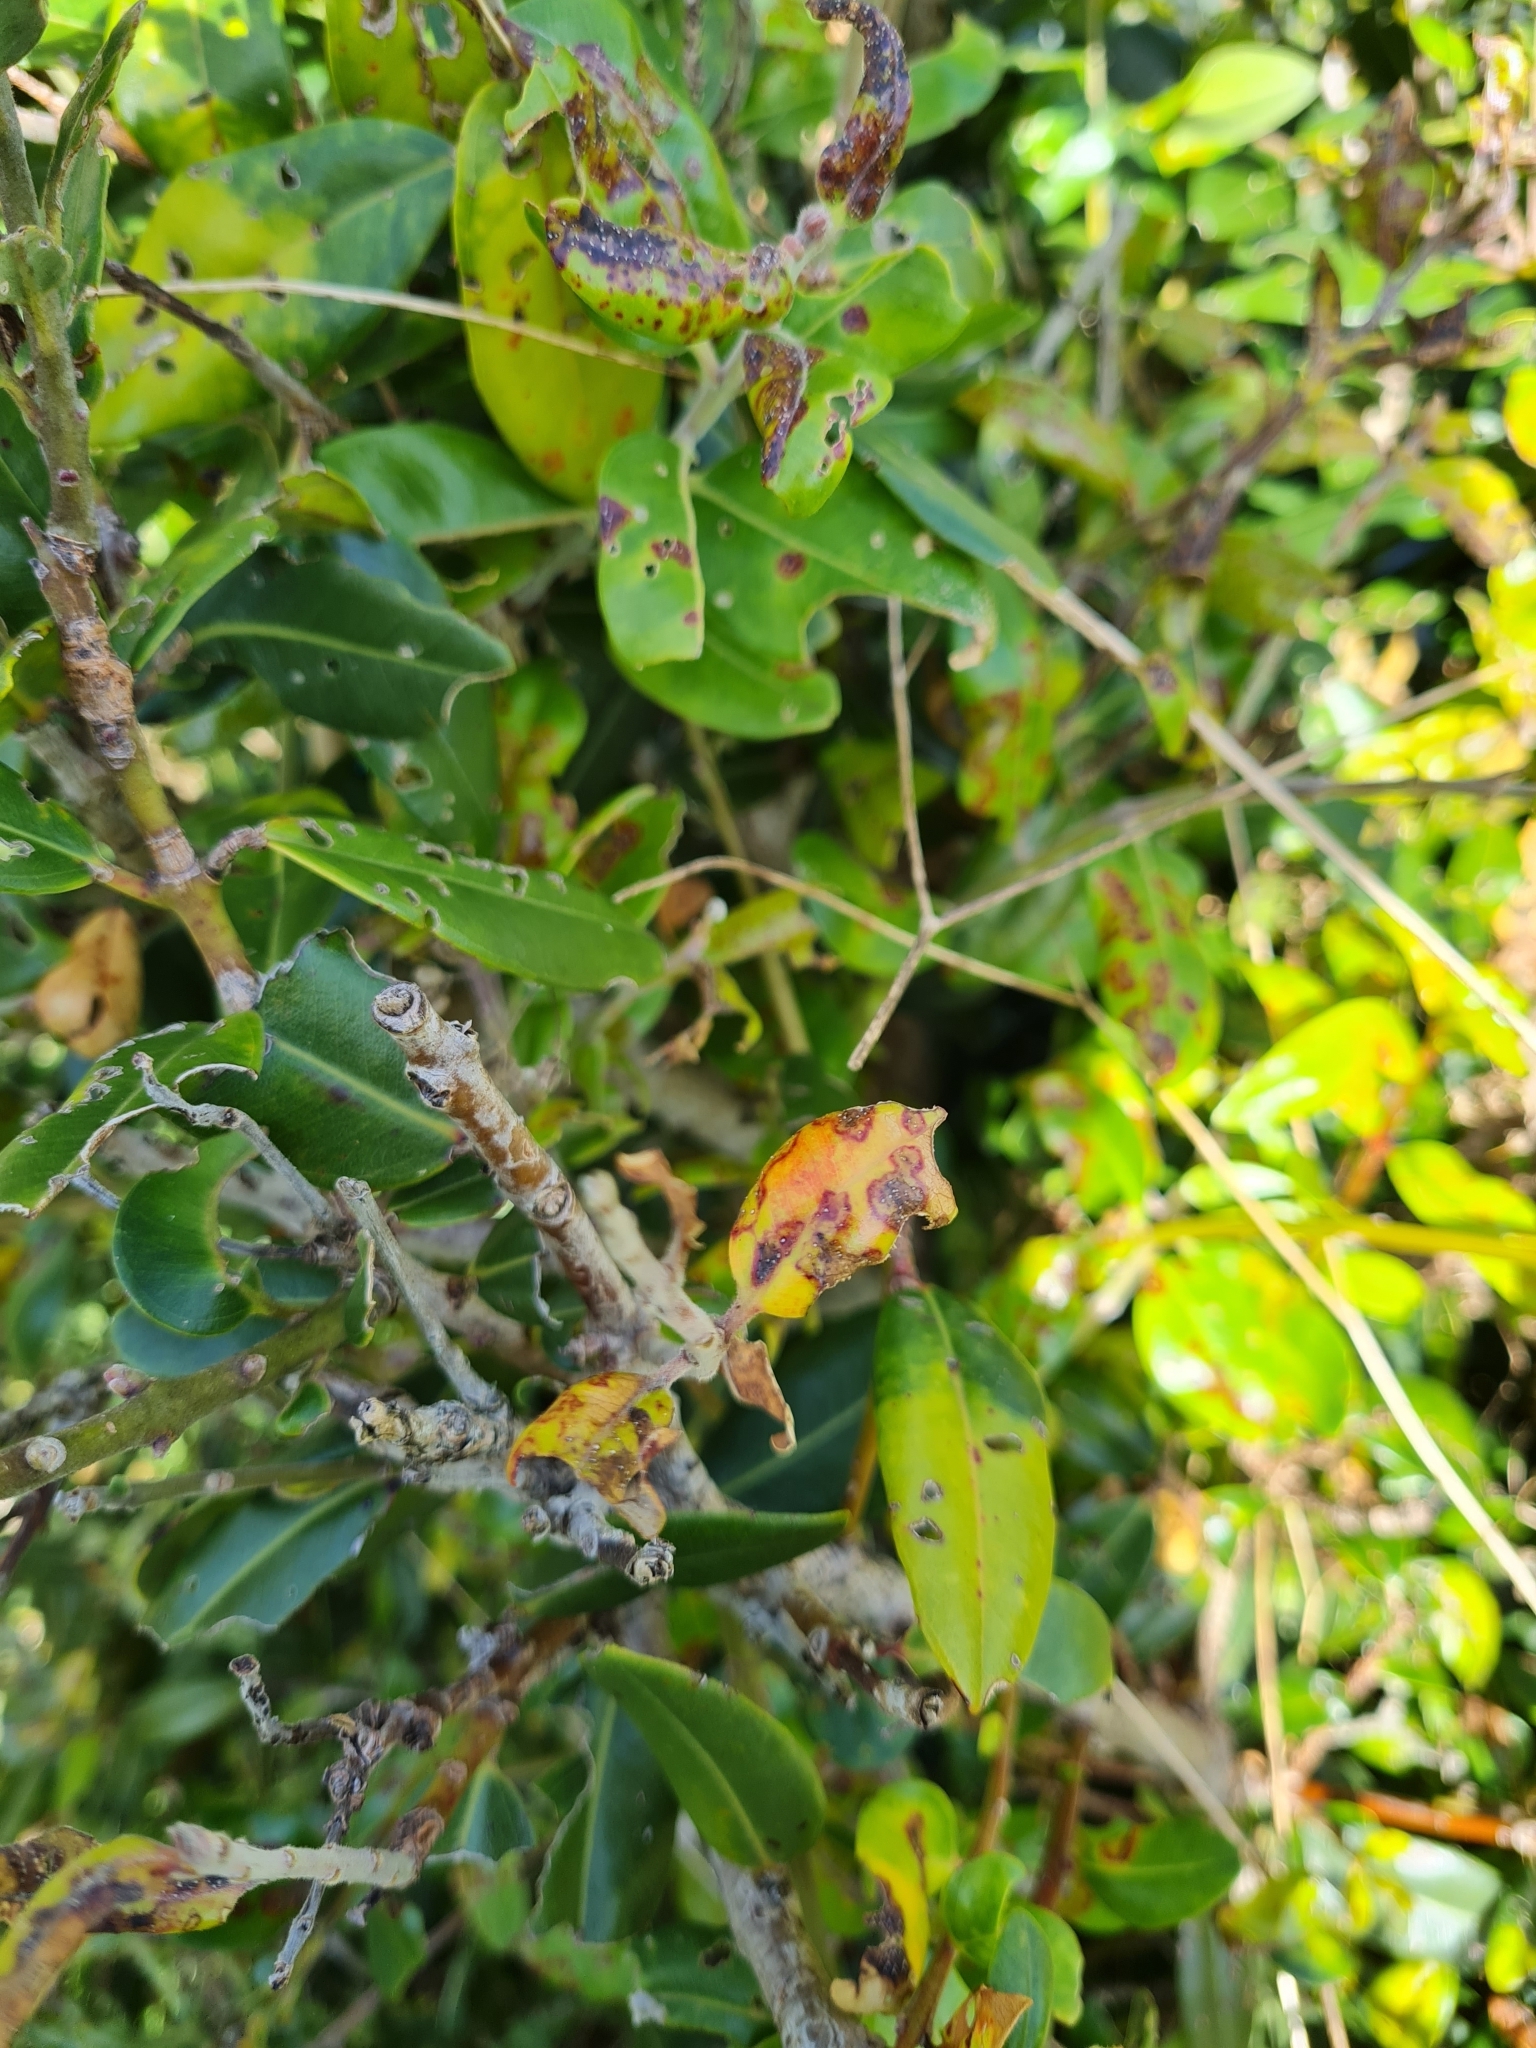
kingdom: Fungi
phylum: Basidiomycota
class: Pucciniomycetes
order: Pucciniales
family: Sphaerophragmiaceae
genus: Austropuccinia
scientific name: Austropuccinia psidii
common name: Myrtle rust
